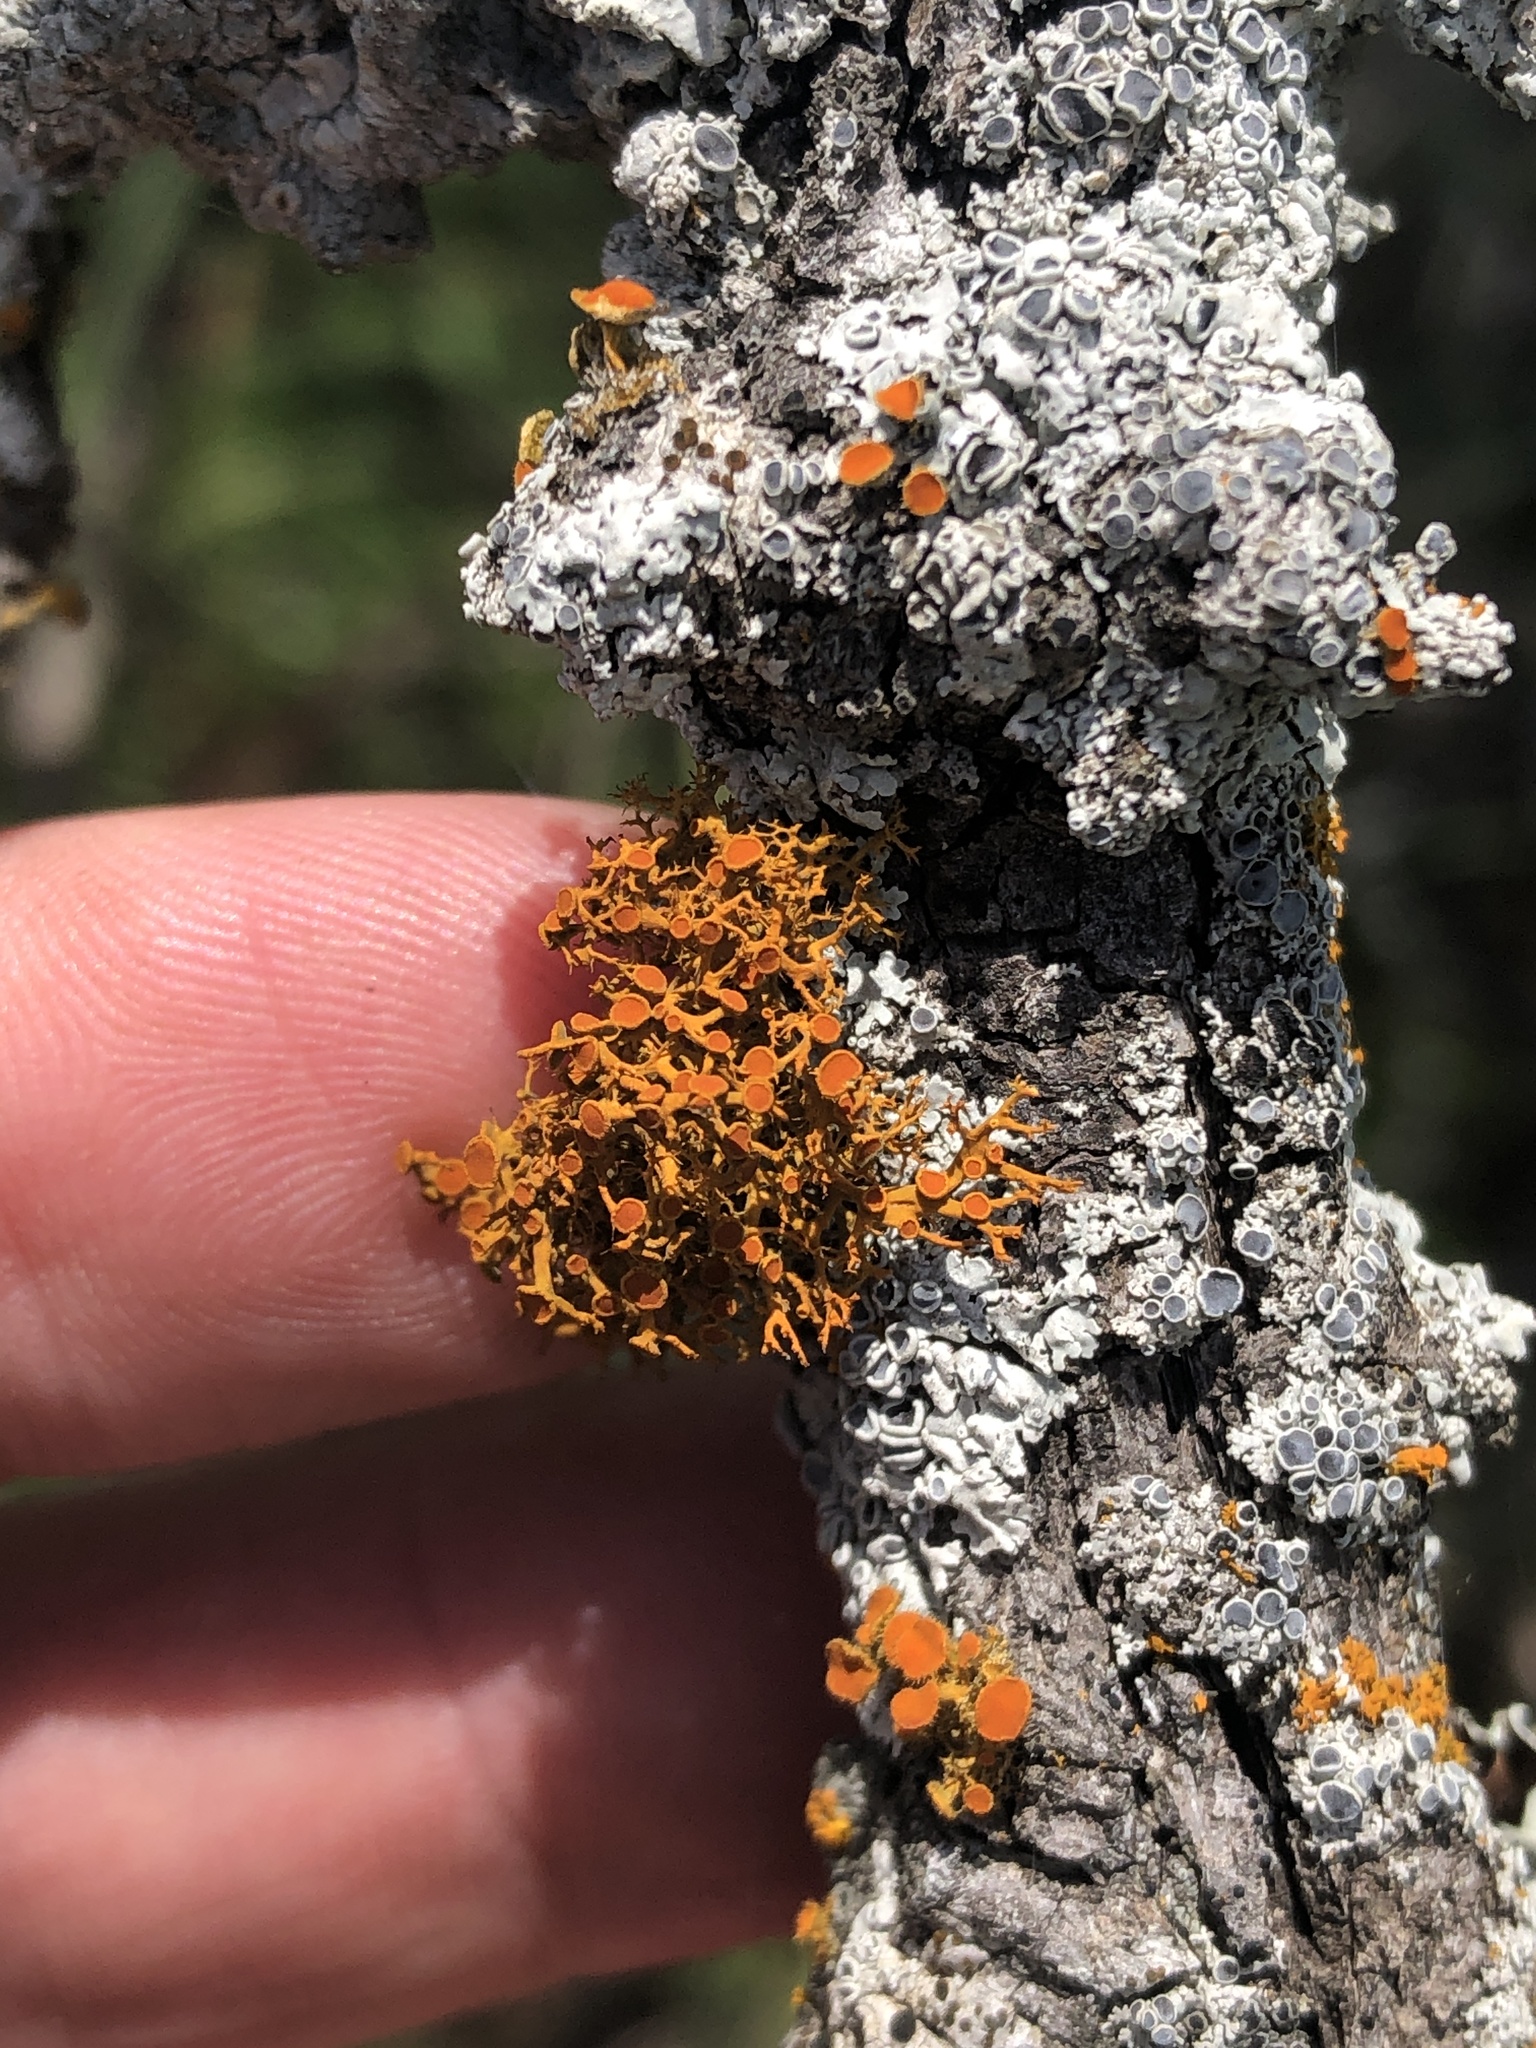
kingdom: Fungi
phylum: Ascomycota
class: Lecanoromycetes
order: Teloschistales
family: Teloschistaceae
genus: Teloschistes
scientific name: Teloschistes exilis
